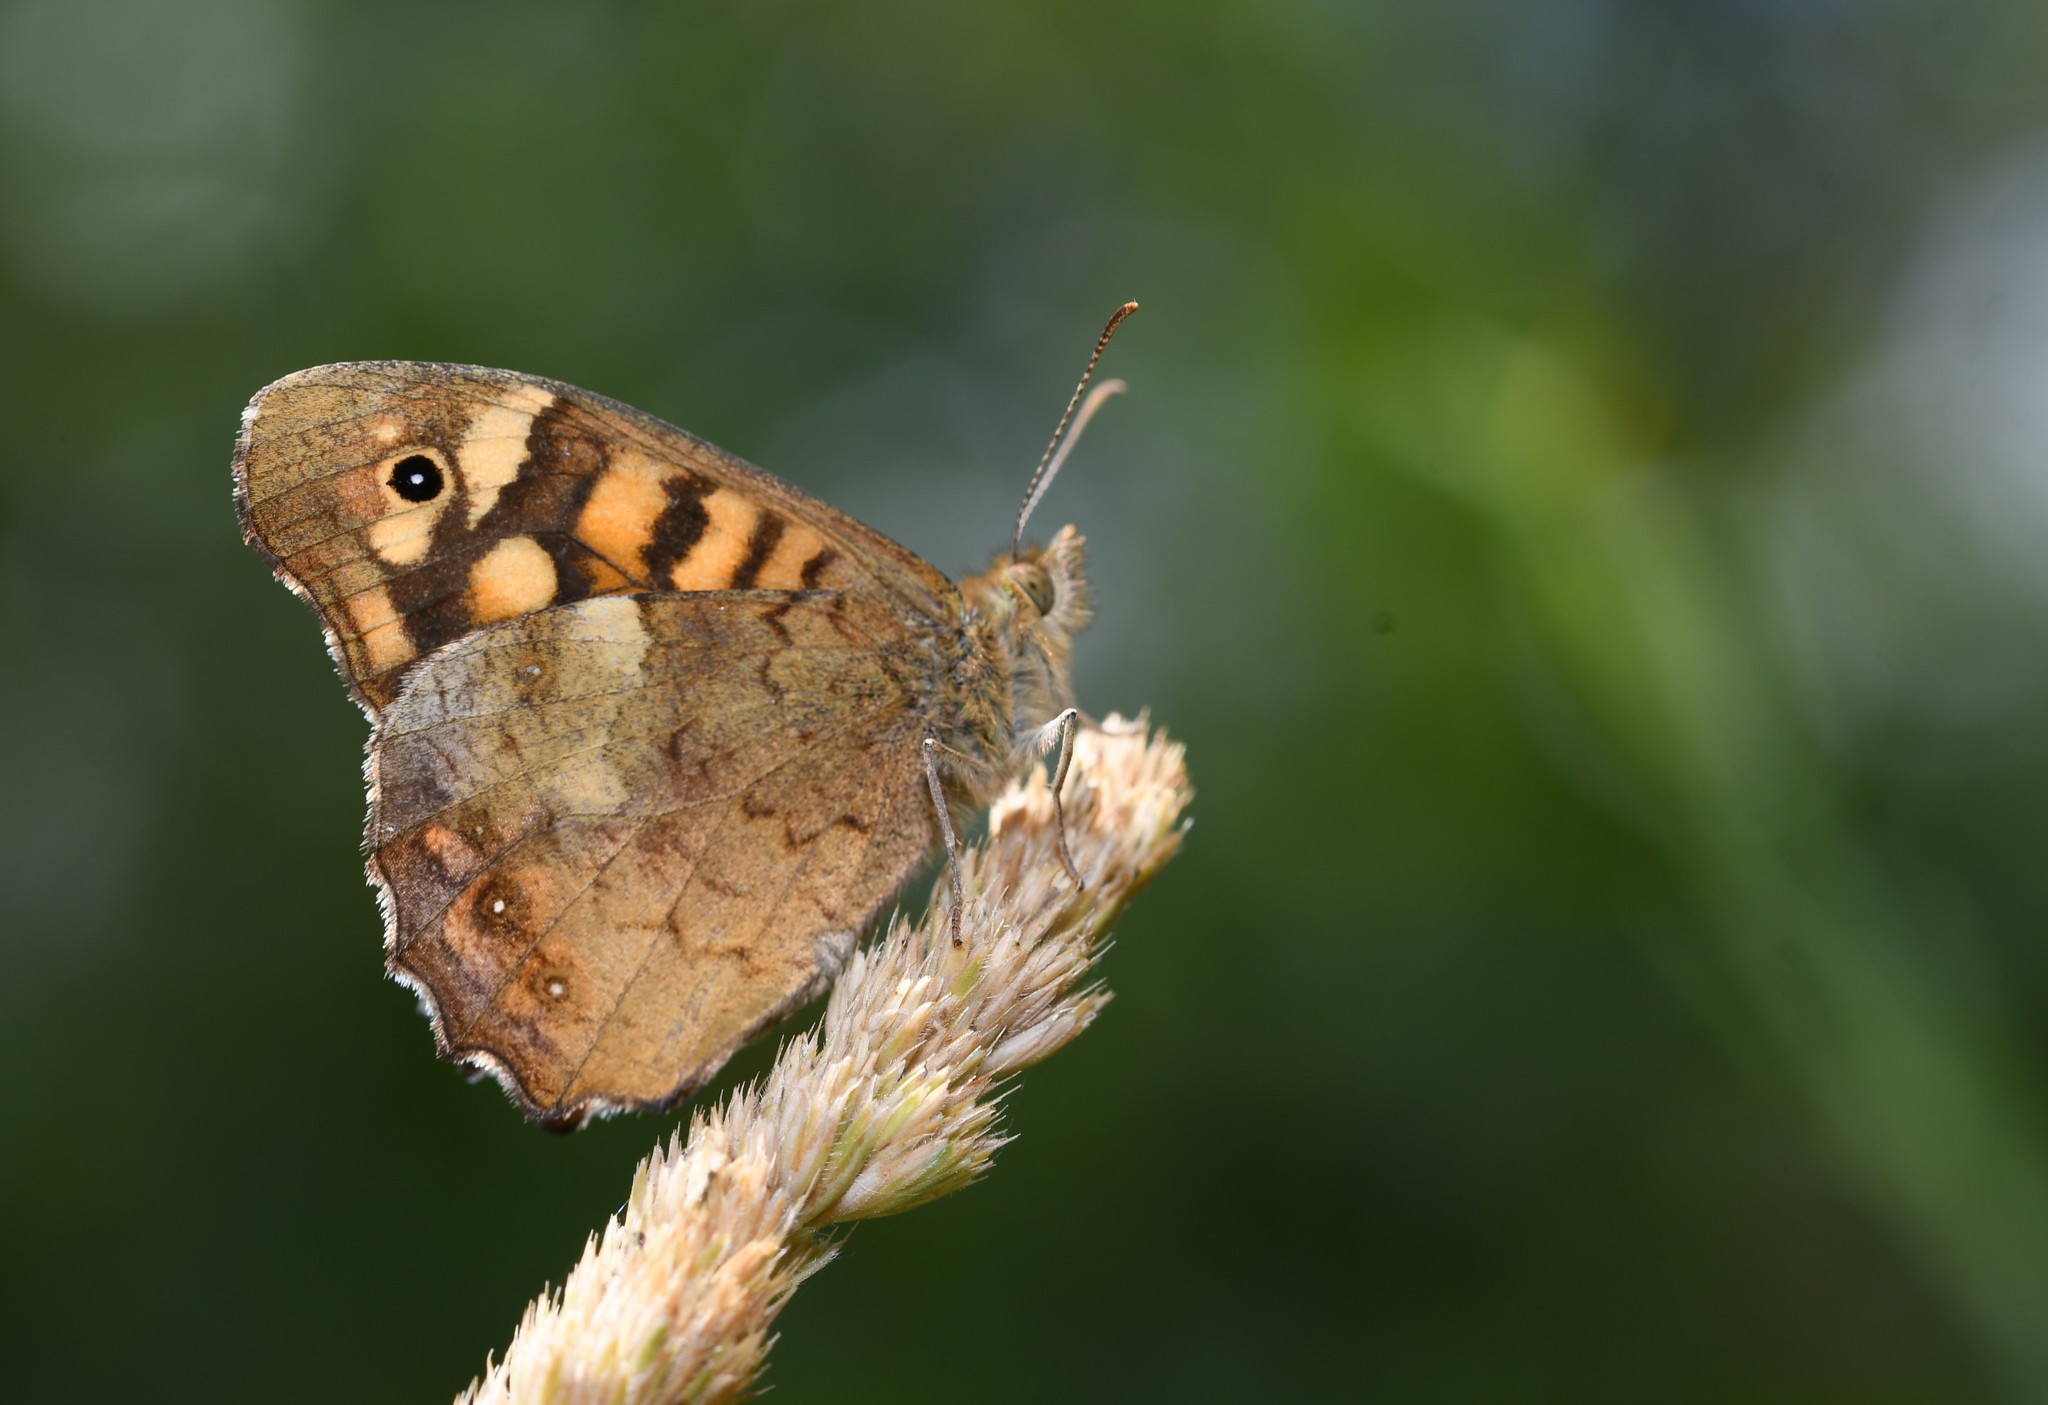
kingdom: Animalia
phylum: Arthropoda
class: Insecta
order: Lepidoptera
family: Nymphalidae
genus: Pararge
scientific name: Pararge aegeria
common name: Speckled wood
